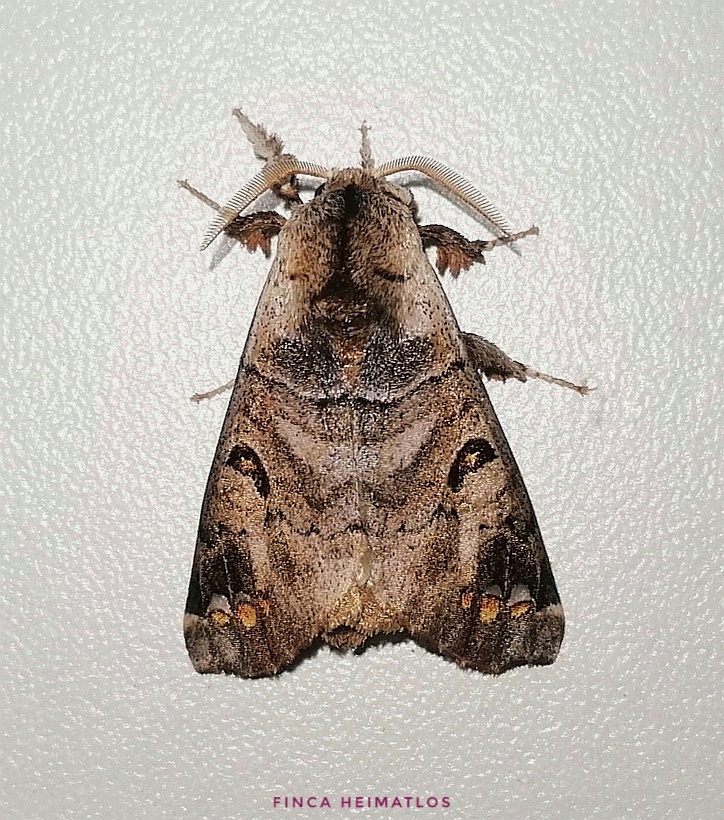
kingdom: Animalia
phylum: Arthropoda
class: Insecta
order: Lepidoptera
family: Apatelodidae
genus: Pantelodes
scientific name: Pantelodes maranhensis
